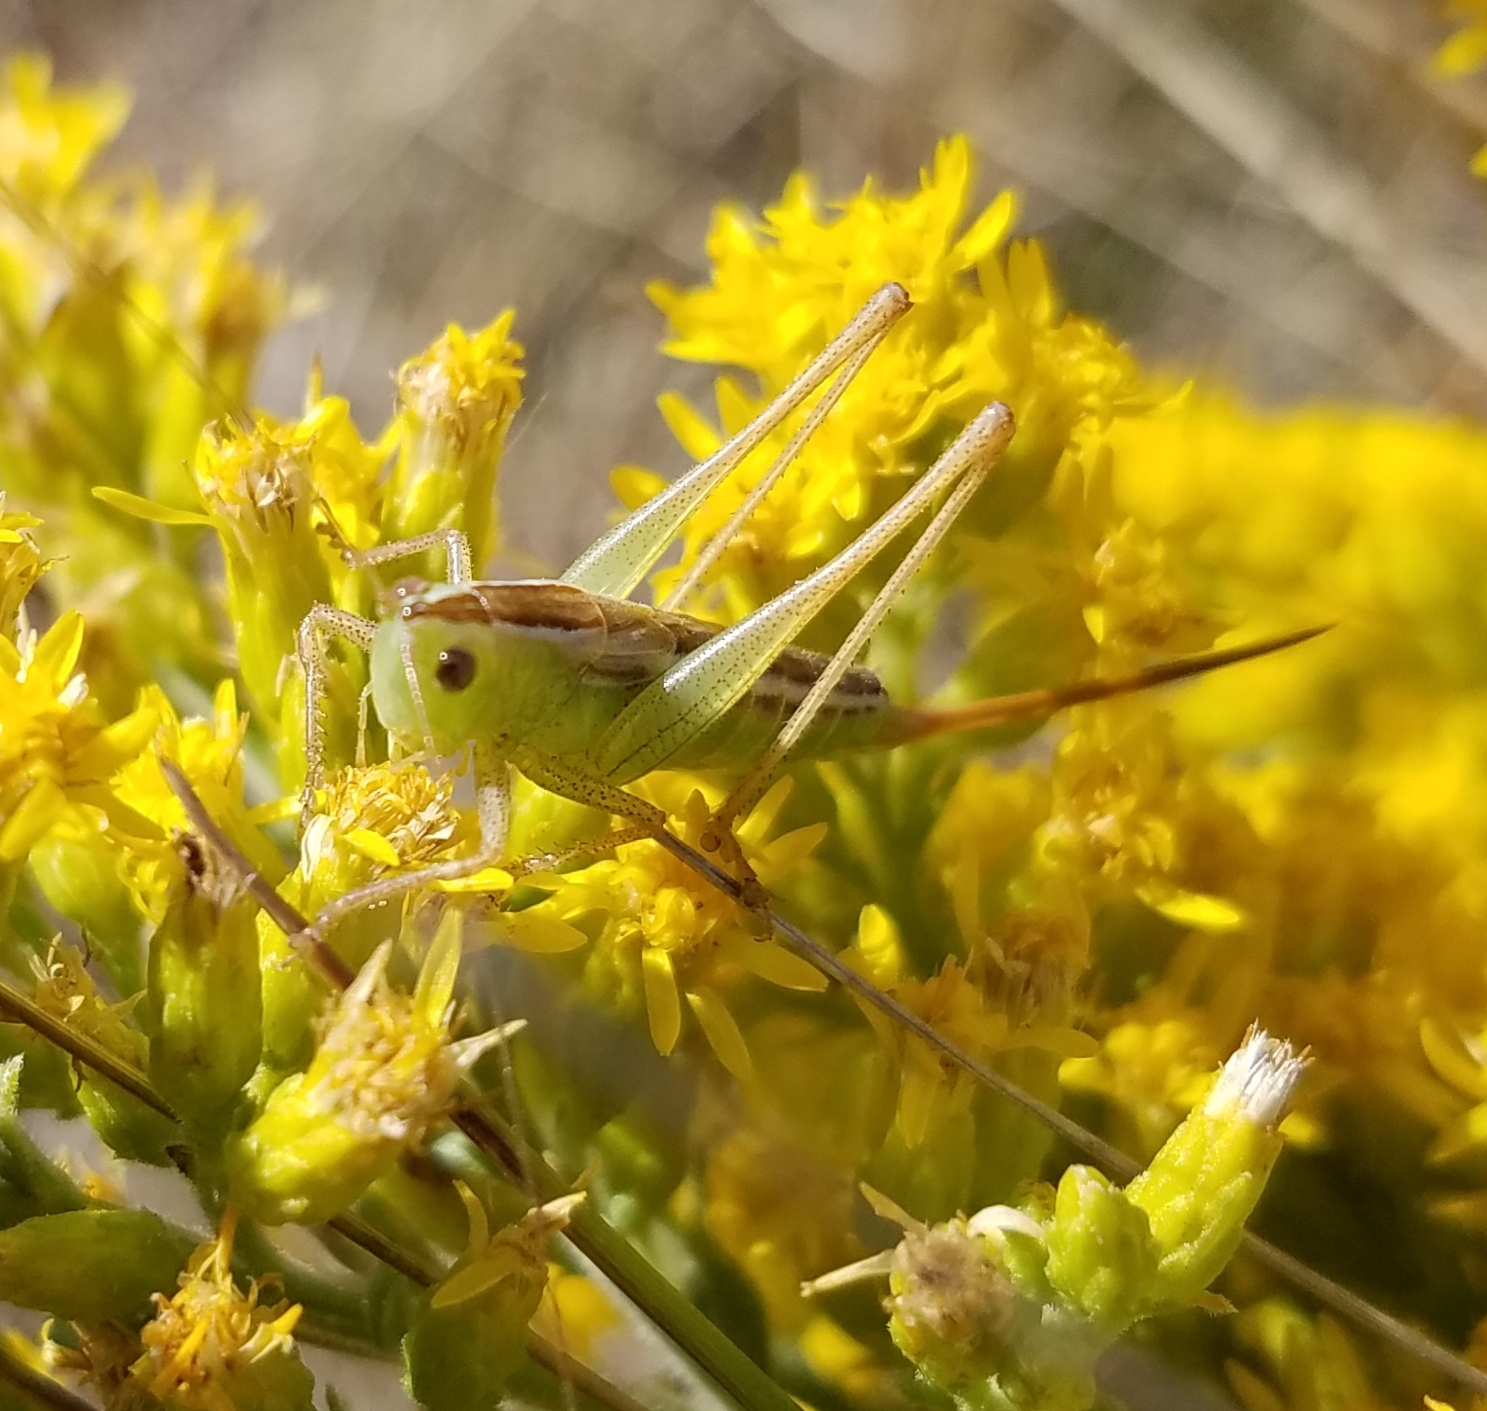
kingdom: Animalia
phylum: Arthropoda
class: Insecta
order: Orthoptera
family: Tettigoniidae
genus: Conocephalus
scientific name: Conocephalus saltans
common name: Prairie meadow katydid
